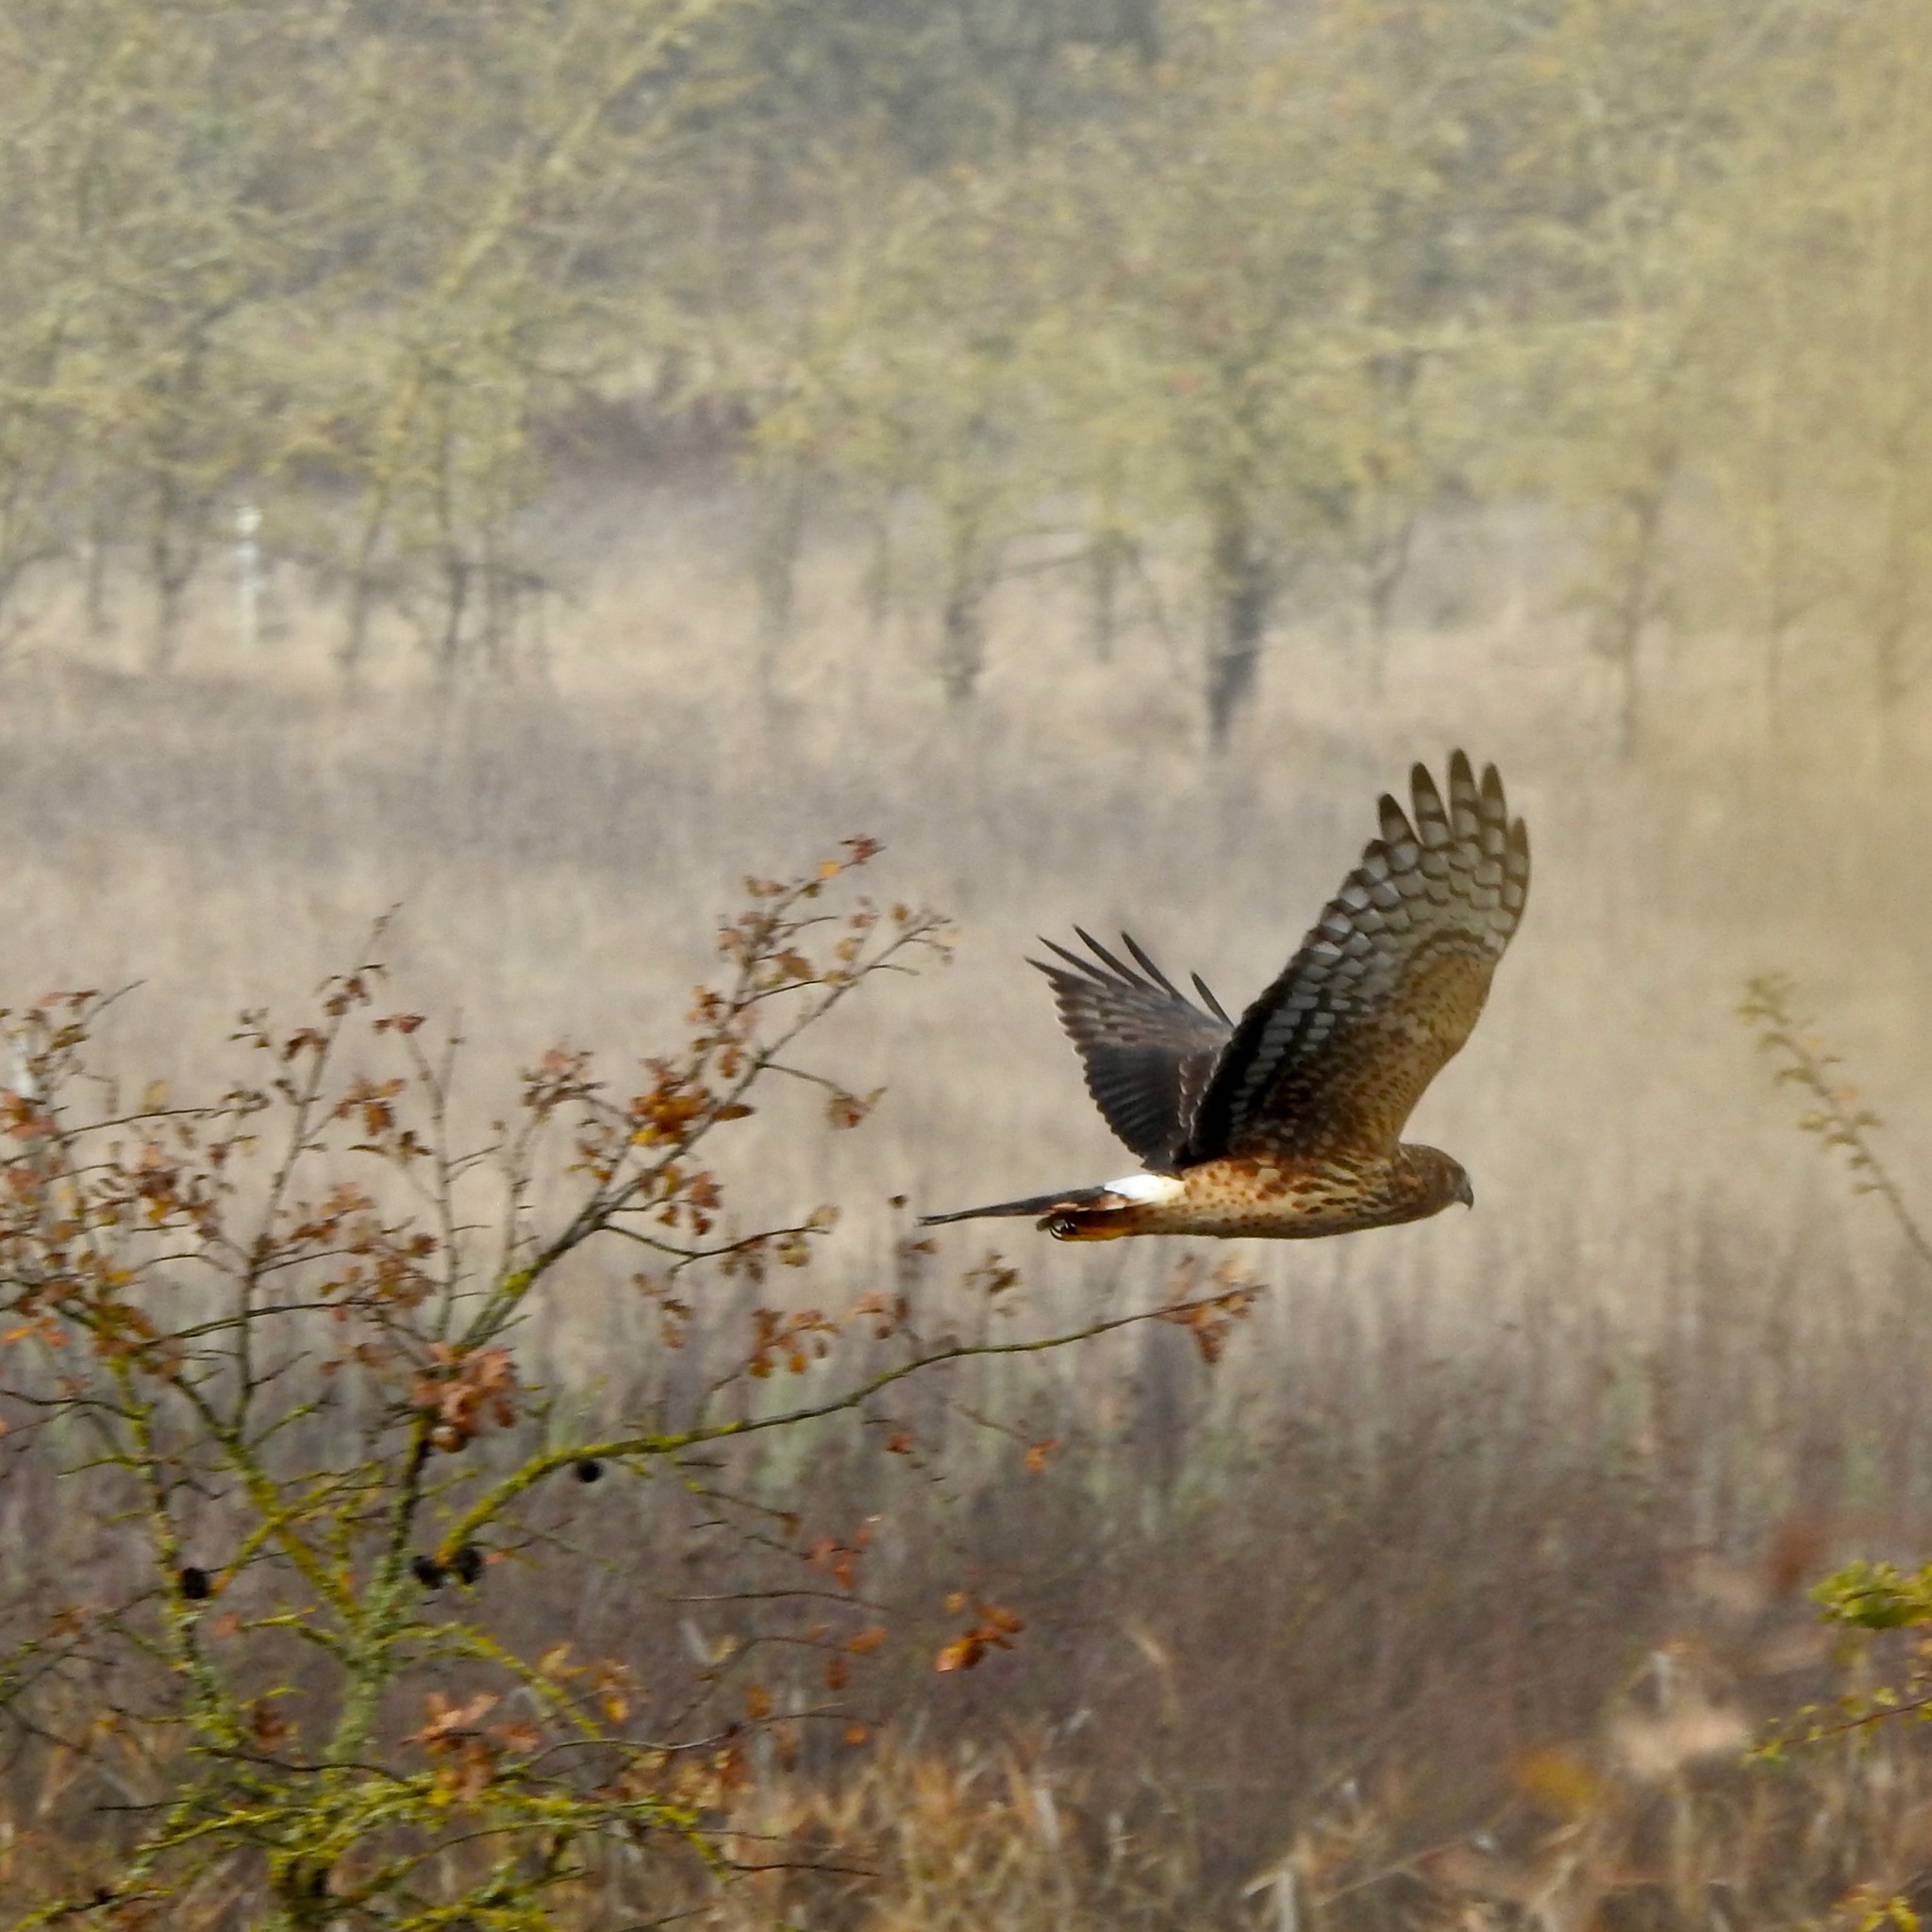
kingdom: Animalia
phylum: Chordata
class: Aves
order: Accipitriformes
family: Accipitridae
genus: Circus
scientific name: Circus cyaneus
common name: Hen harrier
